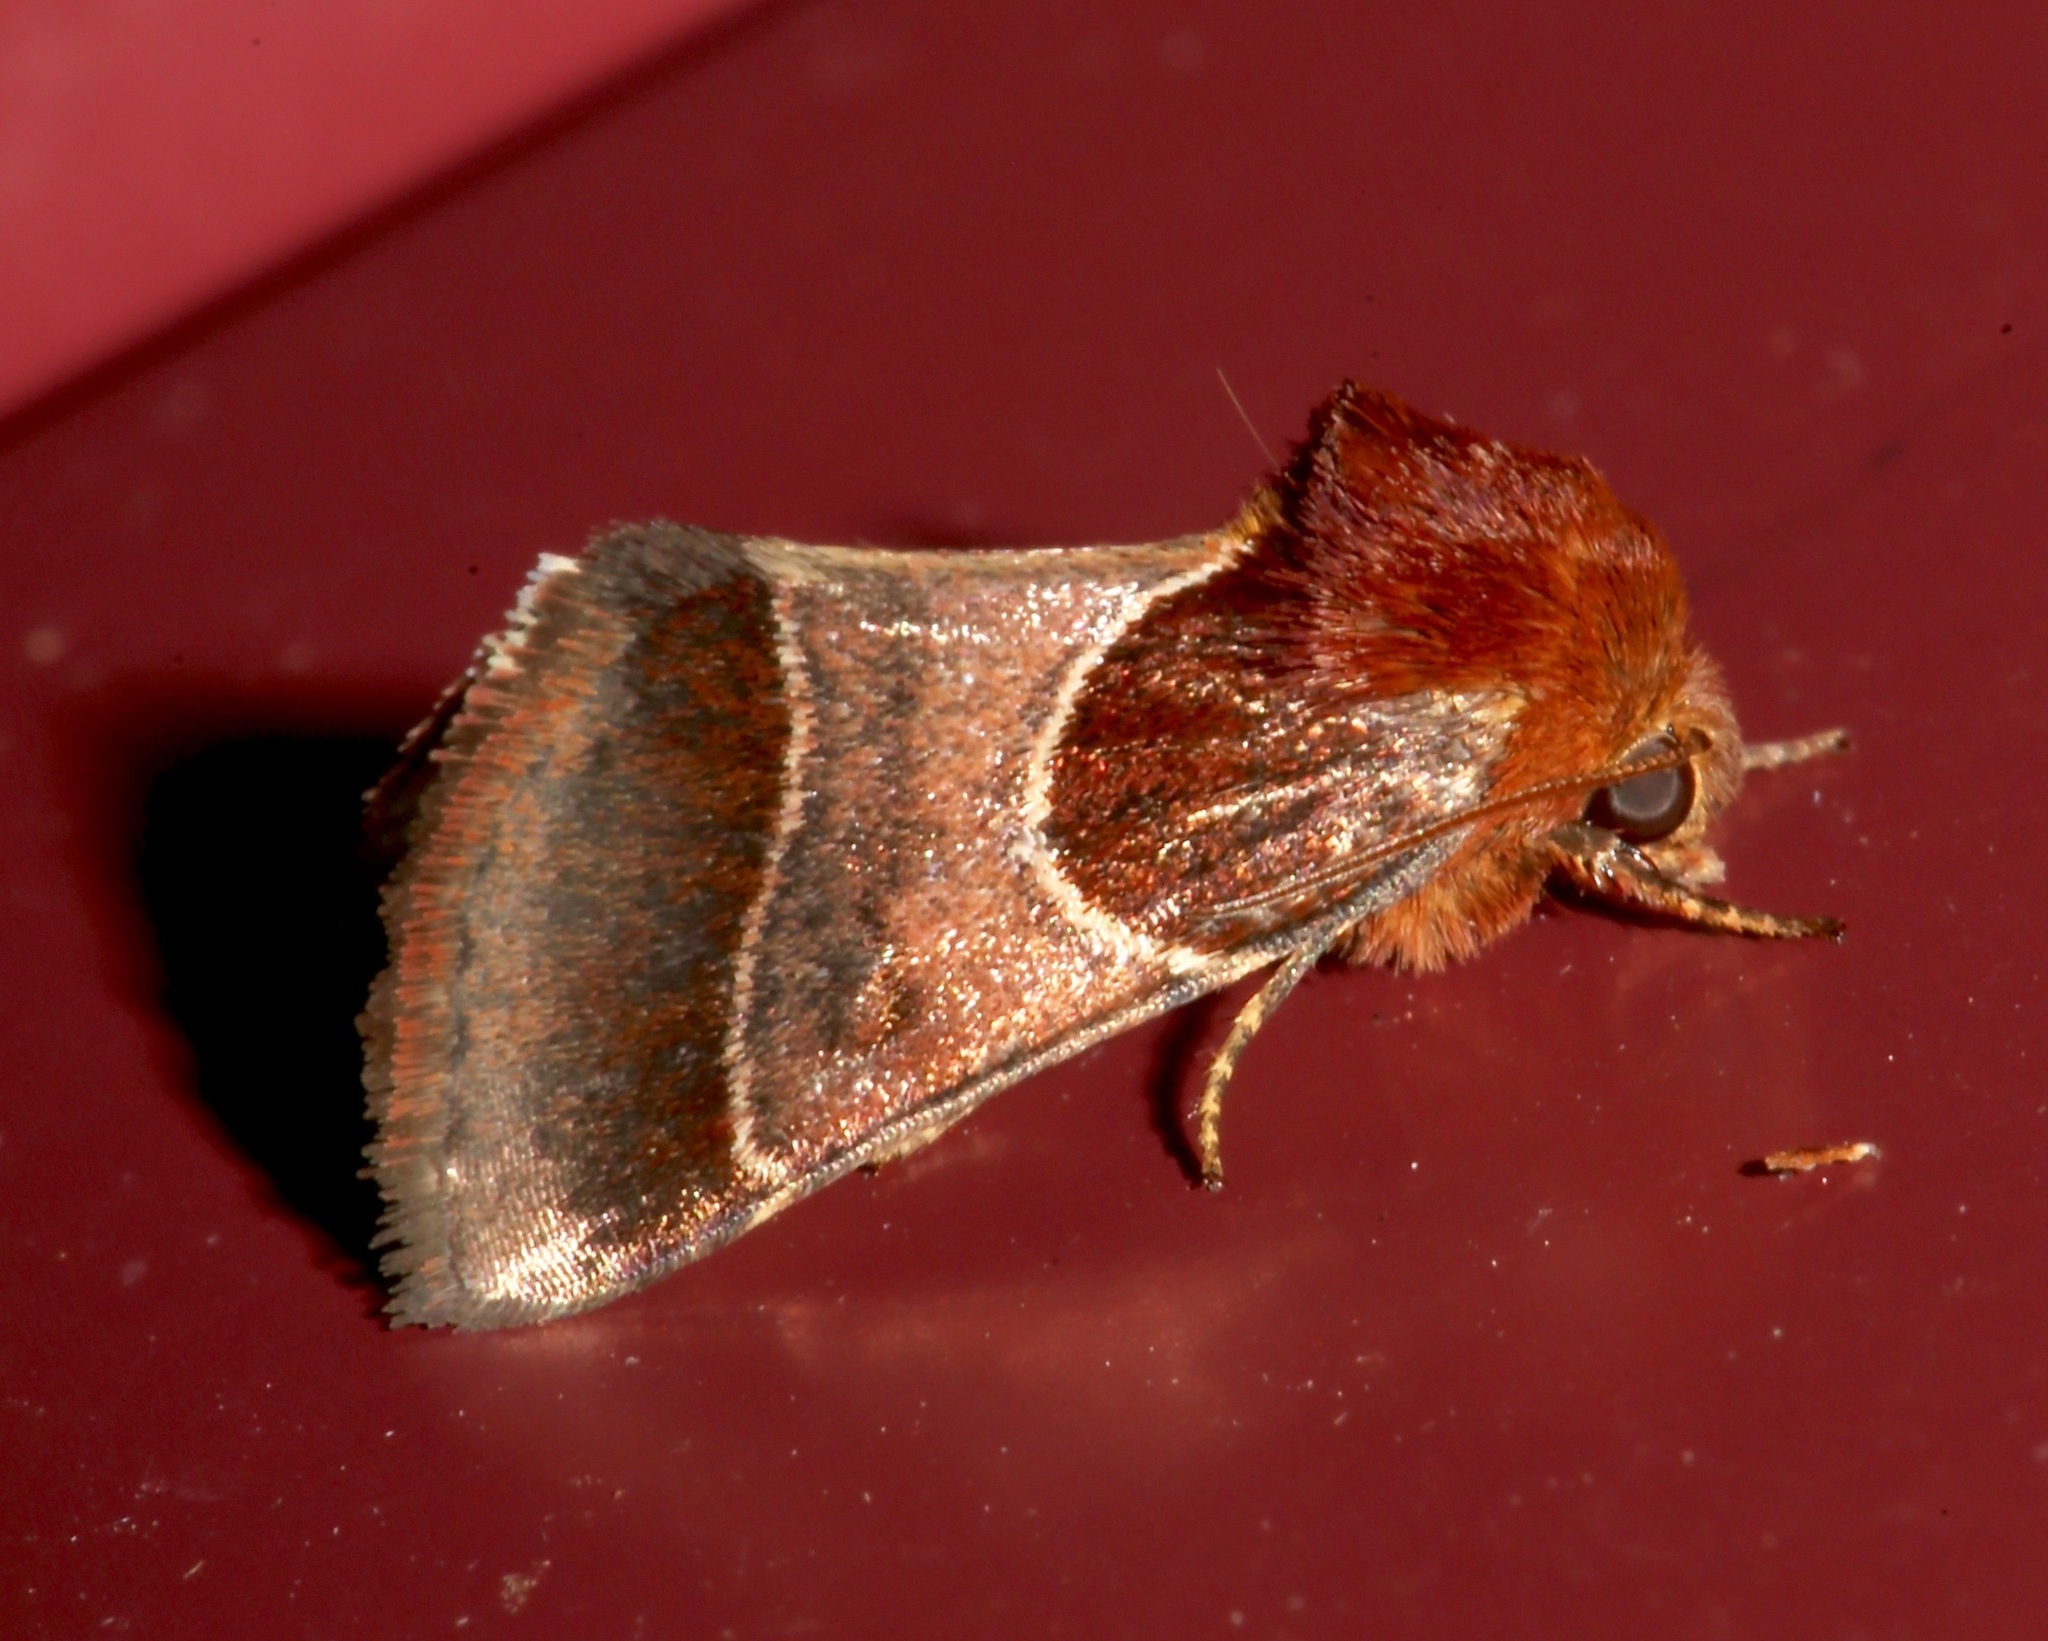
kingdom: Animalia
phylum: Arthropoda
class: Insecta
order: Lepidoptera
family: Noctuidae
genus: Schinia
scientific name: Schinia arcigera
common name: Arcigera flower moth
